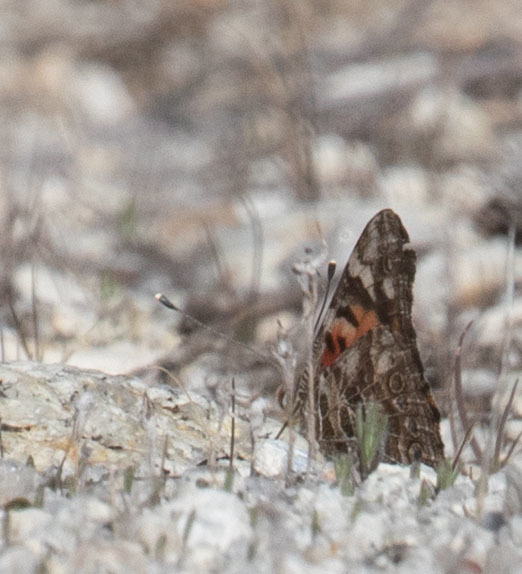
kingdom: Animalia
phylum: Arthropoda
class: Insecta
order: Lepidoptera
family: Nymphalidae
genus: Vanessa
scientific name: Vanessa cardui
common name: Painted lady
